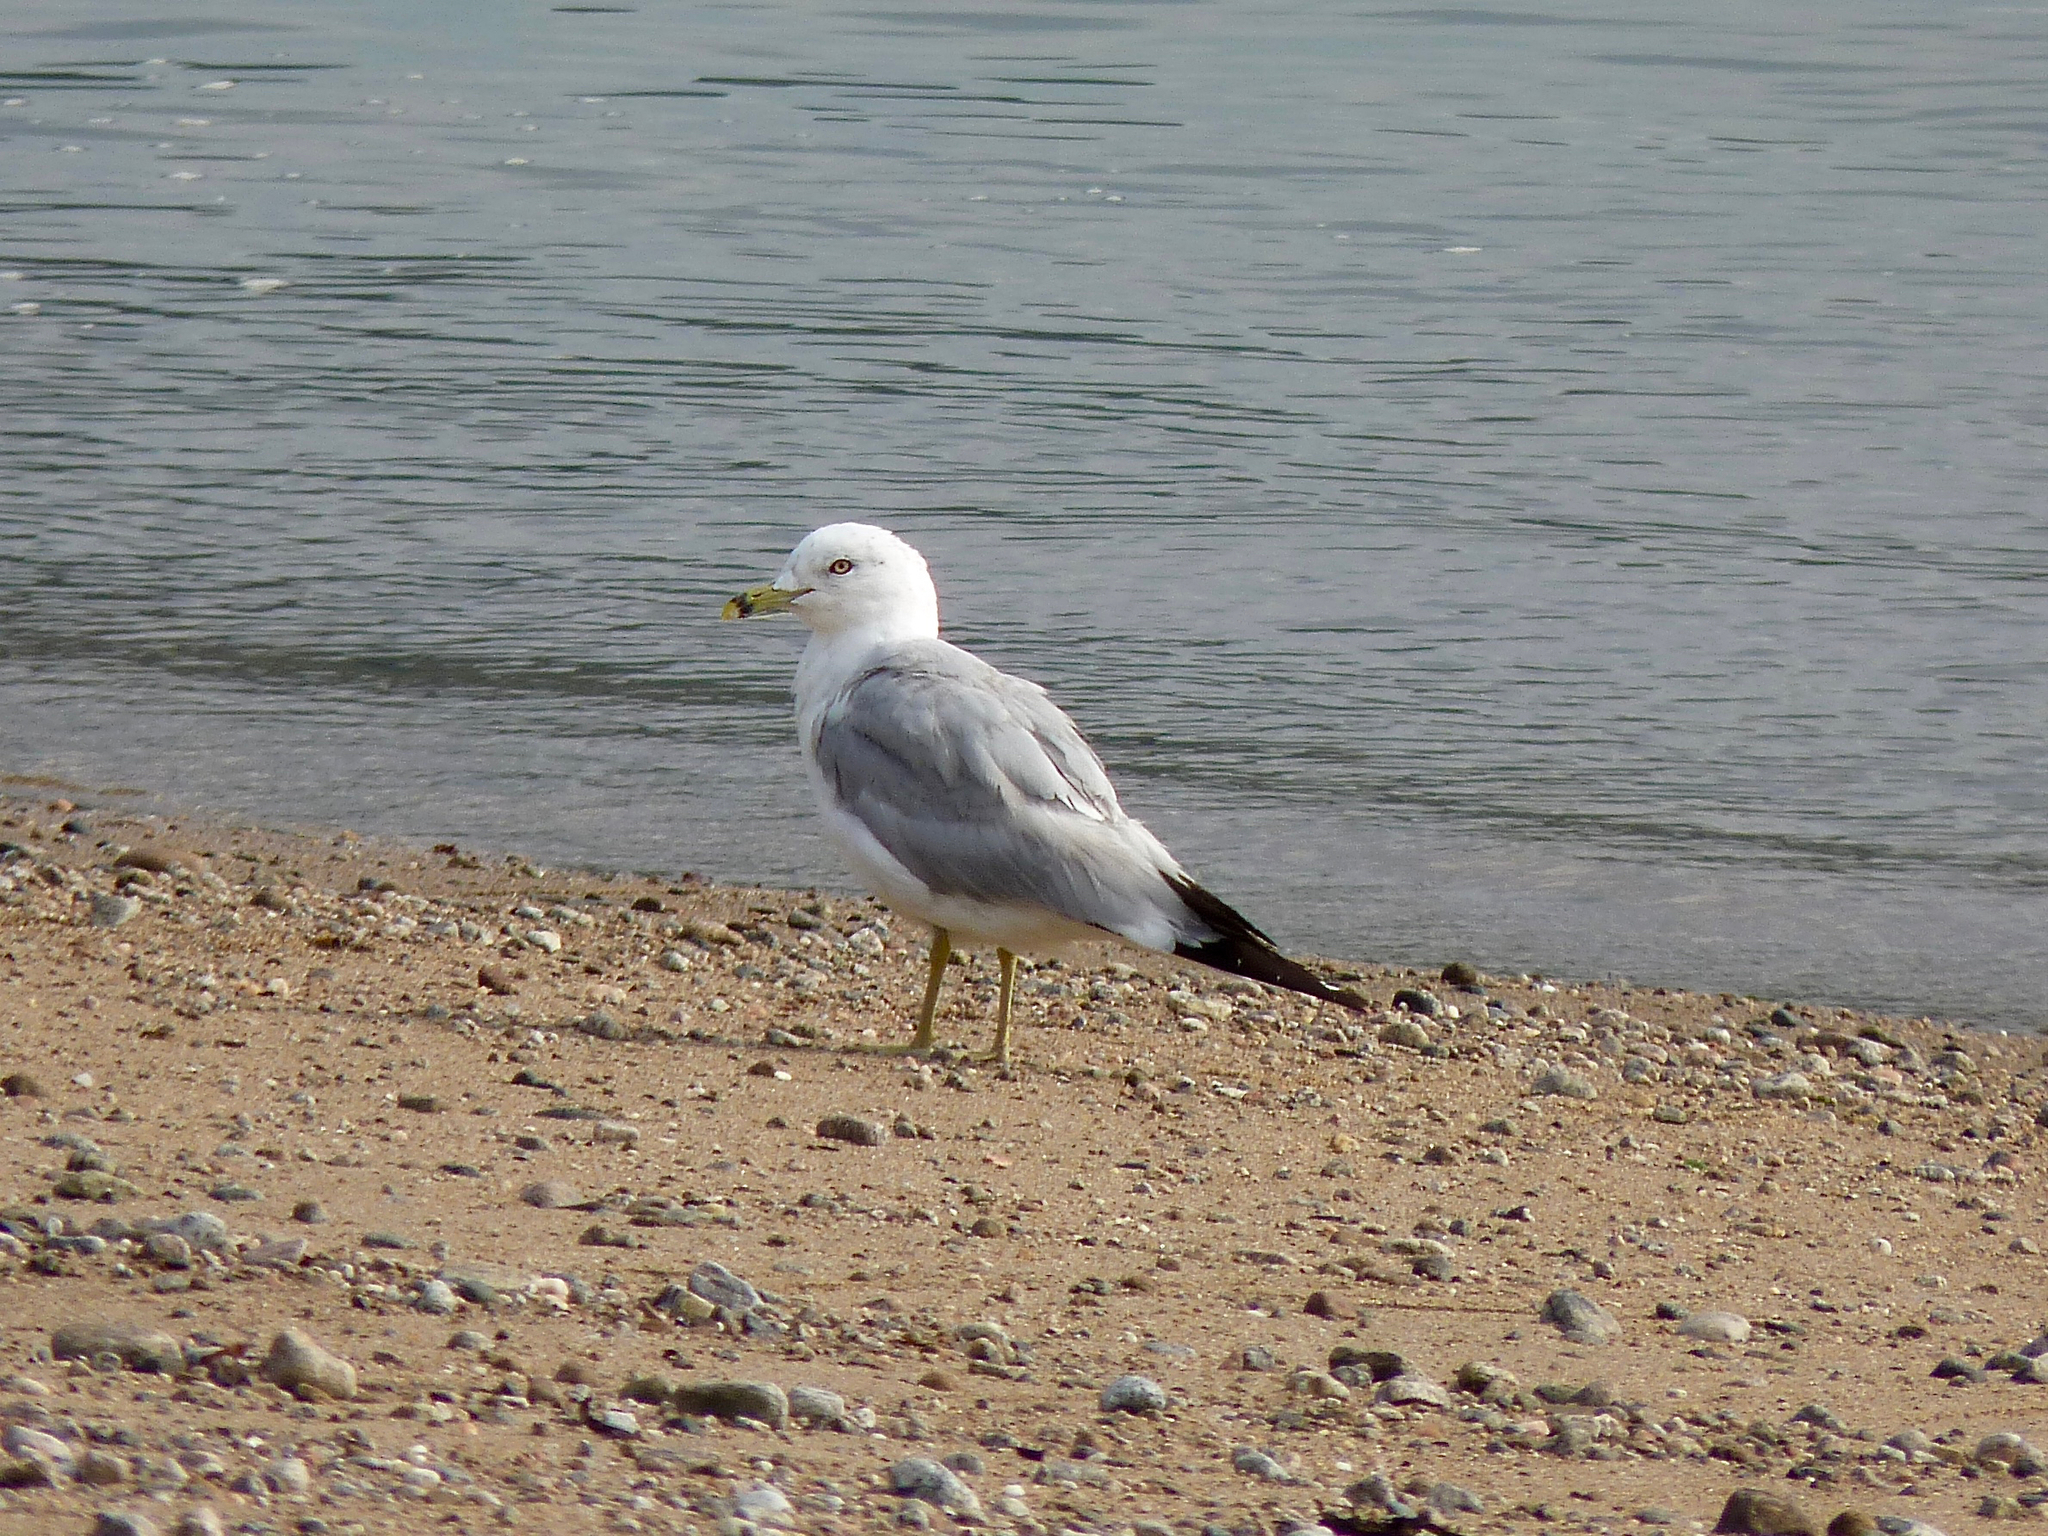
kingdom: Animalia
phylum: Chordata
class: Aves
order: Charadriiformes
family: Laridae
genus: Larus
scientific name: Larus delawarensis
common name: Ring-billed gull
